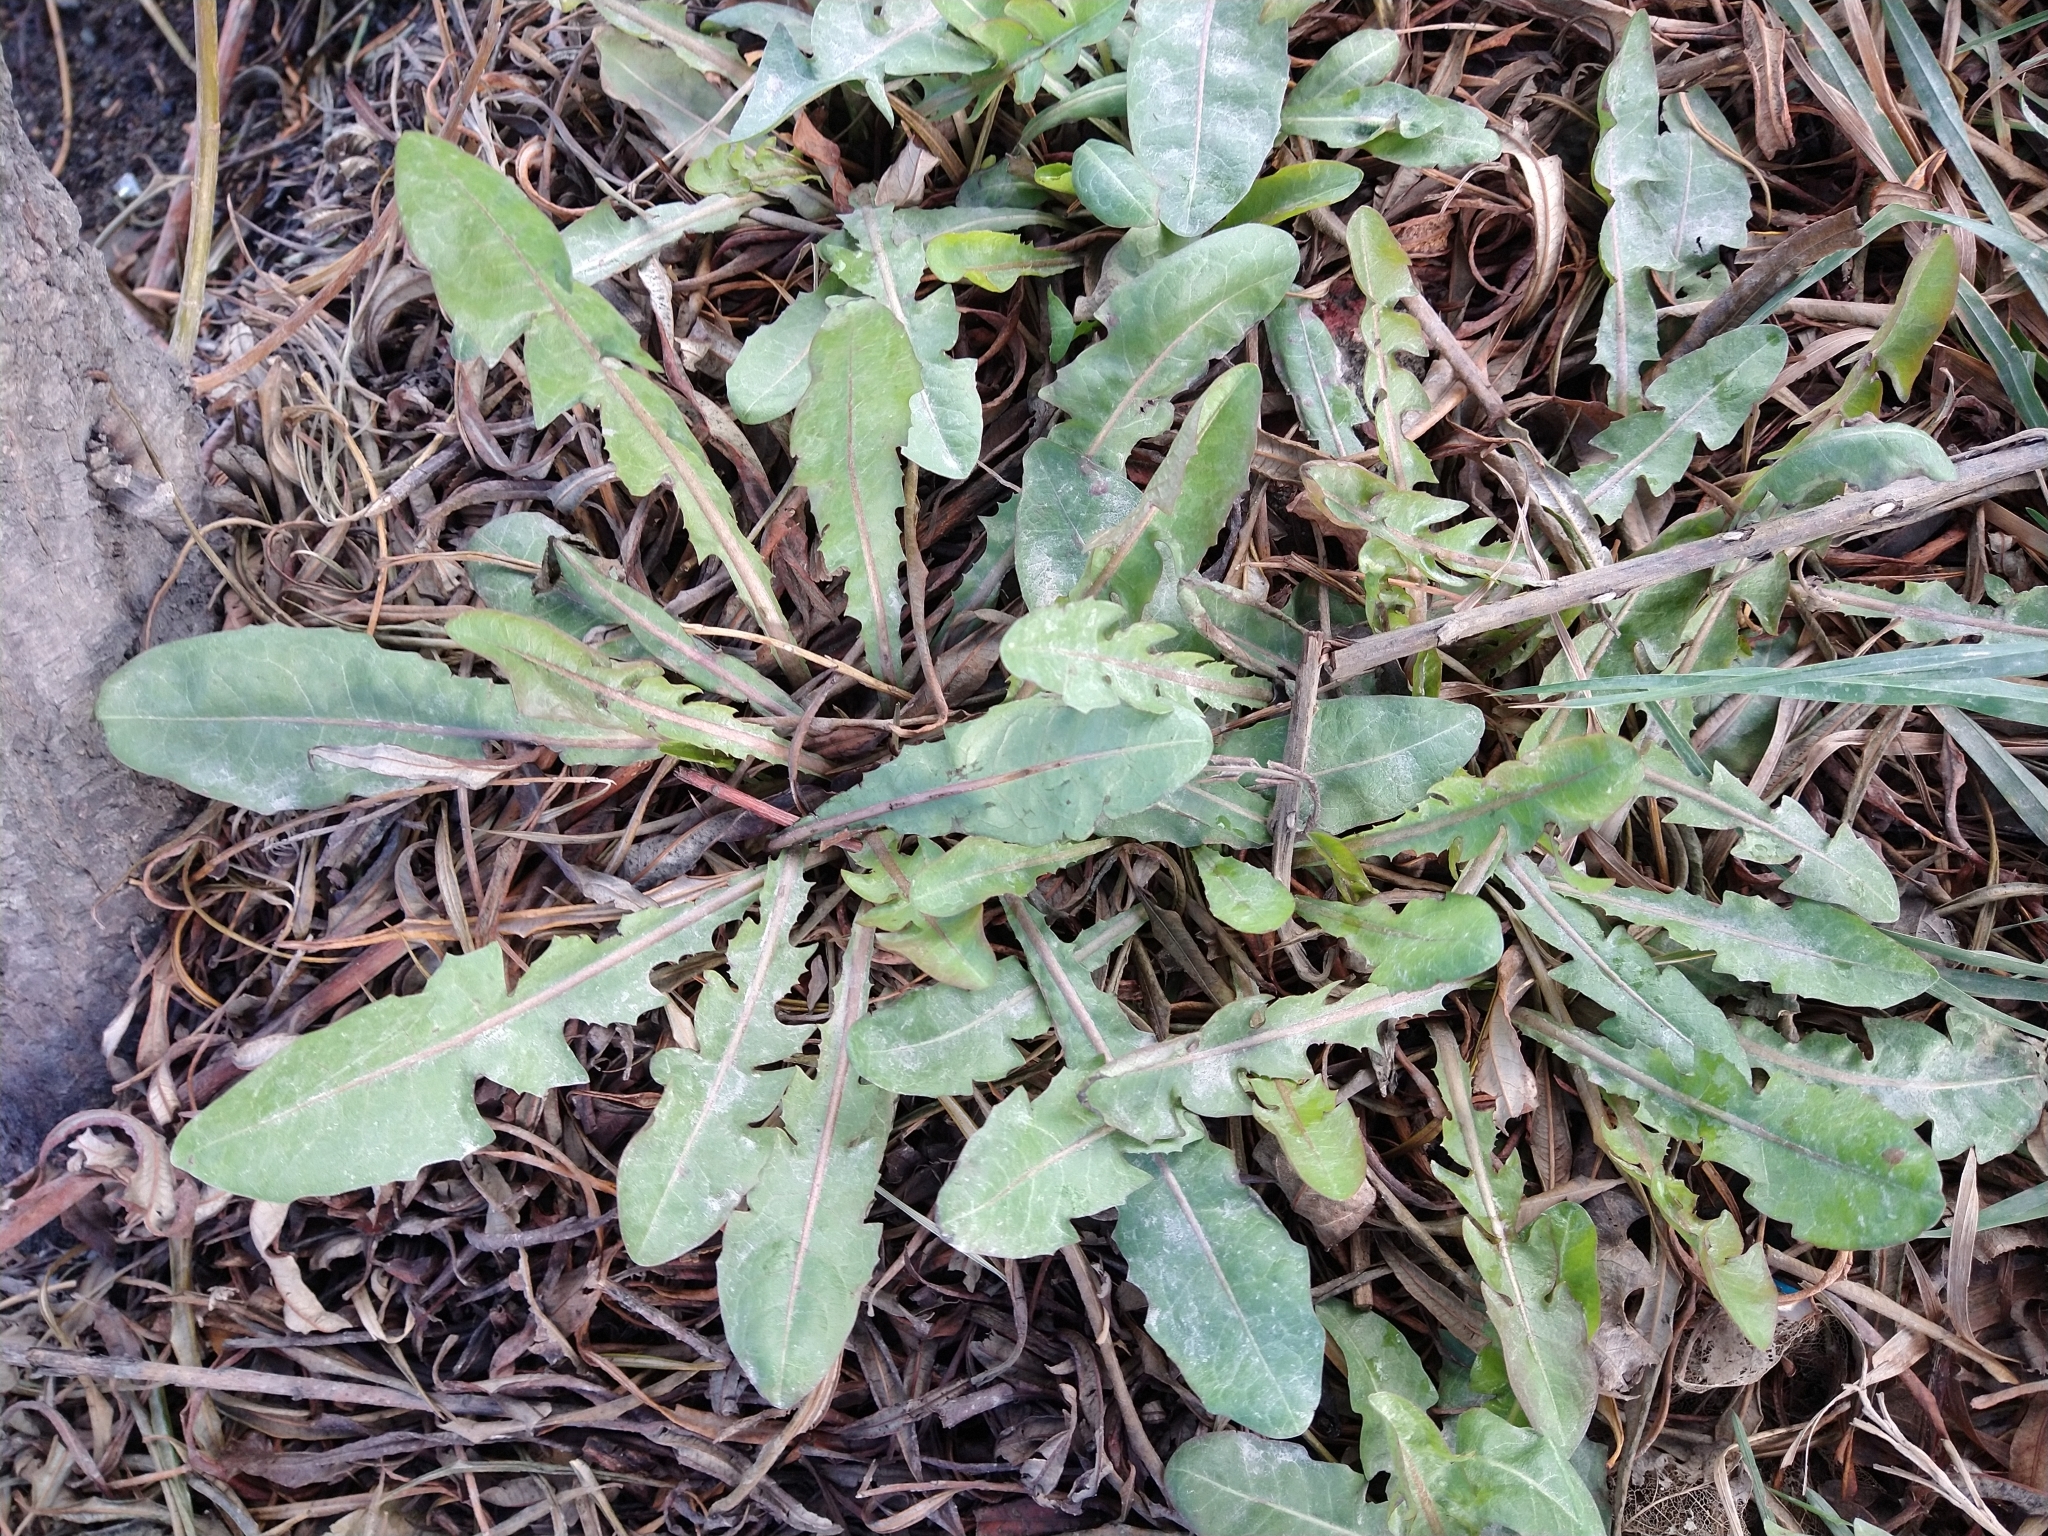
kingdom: Plantae
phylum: Tracheophyta
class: Magnoliopsida
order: Asterales
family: Asteraceae
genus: Taraxacum
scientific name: Taraxacum officinale
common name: Common dandelion
